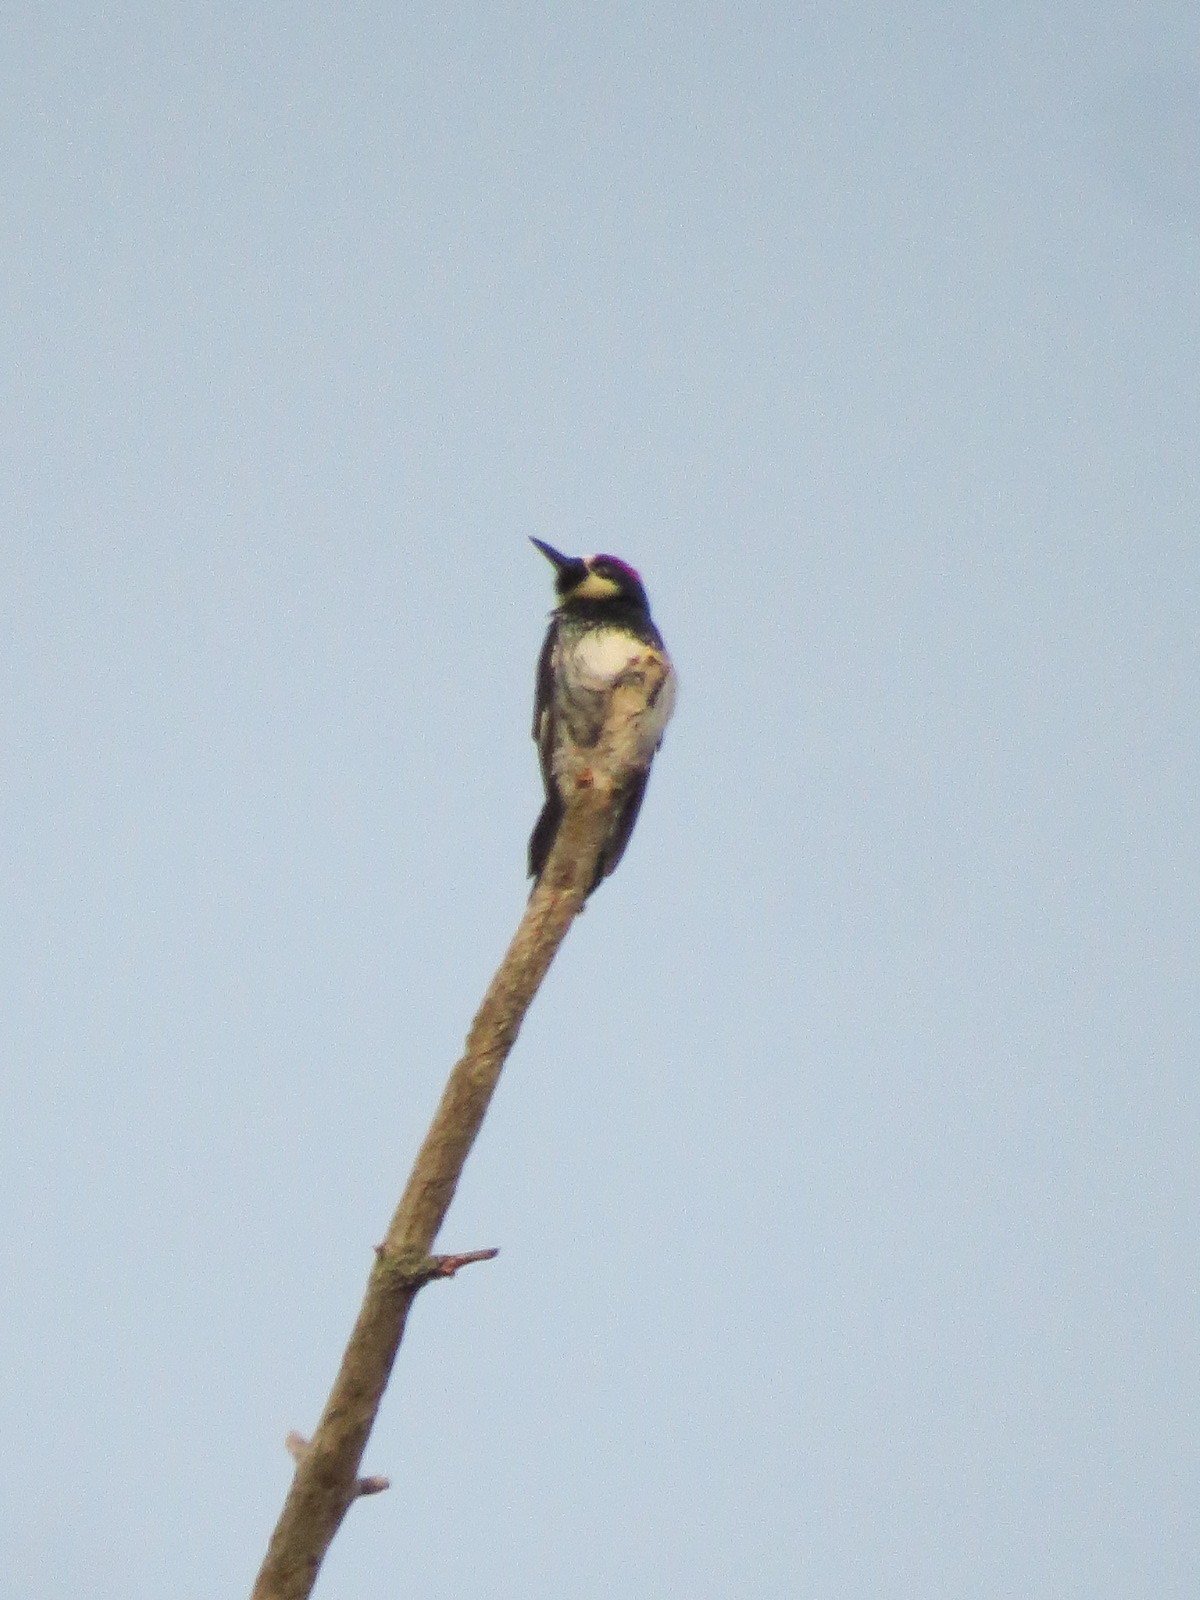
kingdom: Animalia
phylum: Chordata
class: Aves
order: Piciformes
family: Picidae
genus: Melanerpes
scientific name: Melanerpes formicivorus
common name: Acorn woodpecker
